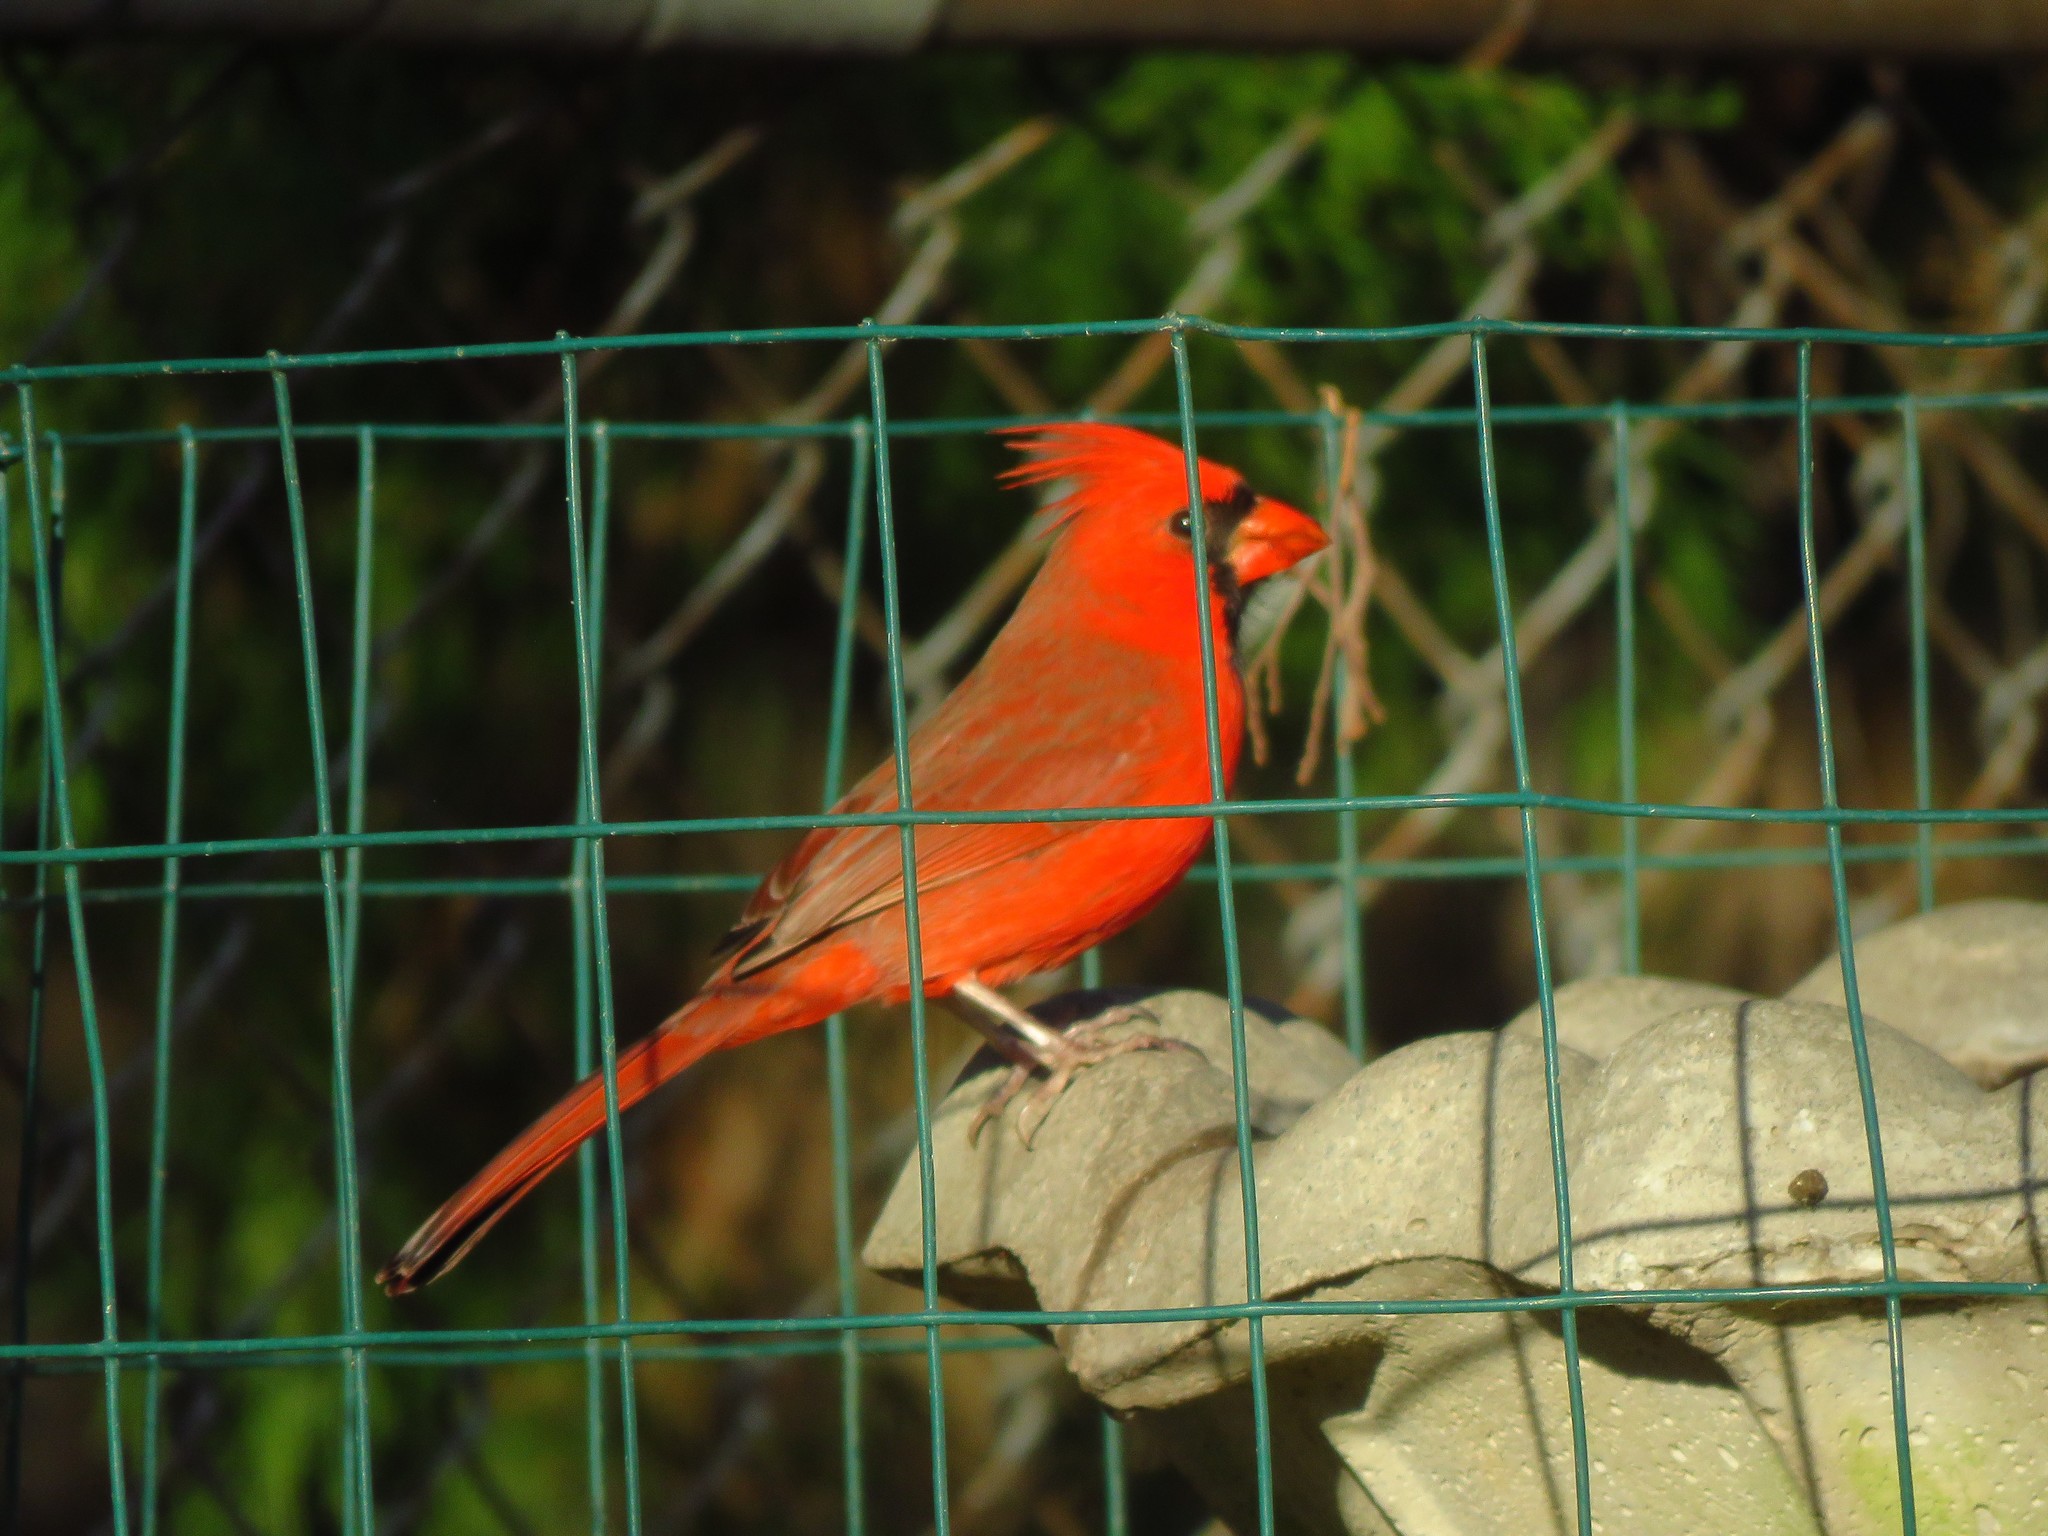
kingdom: Animalia
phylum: Chordata
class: Aves
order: Passeriformes
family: Cardinalidae
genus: Cardinalis
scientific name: Cardinalis cardinalis
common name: Northern cardinal
